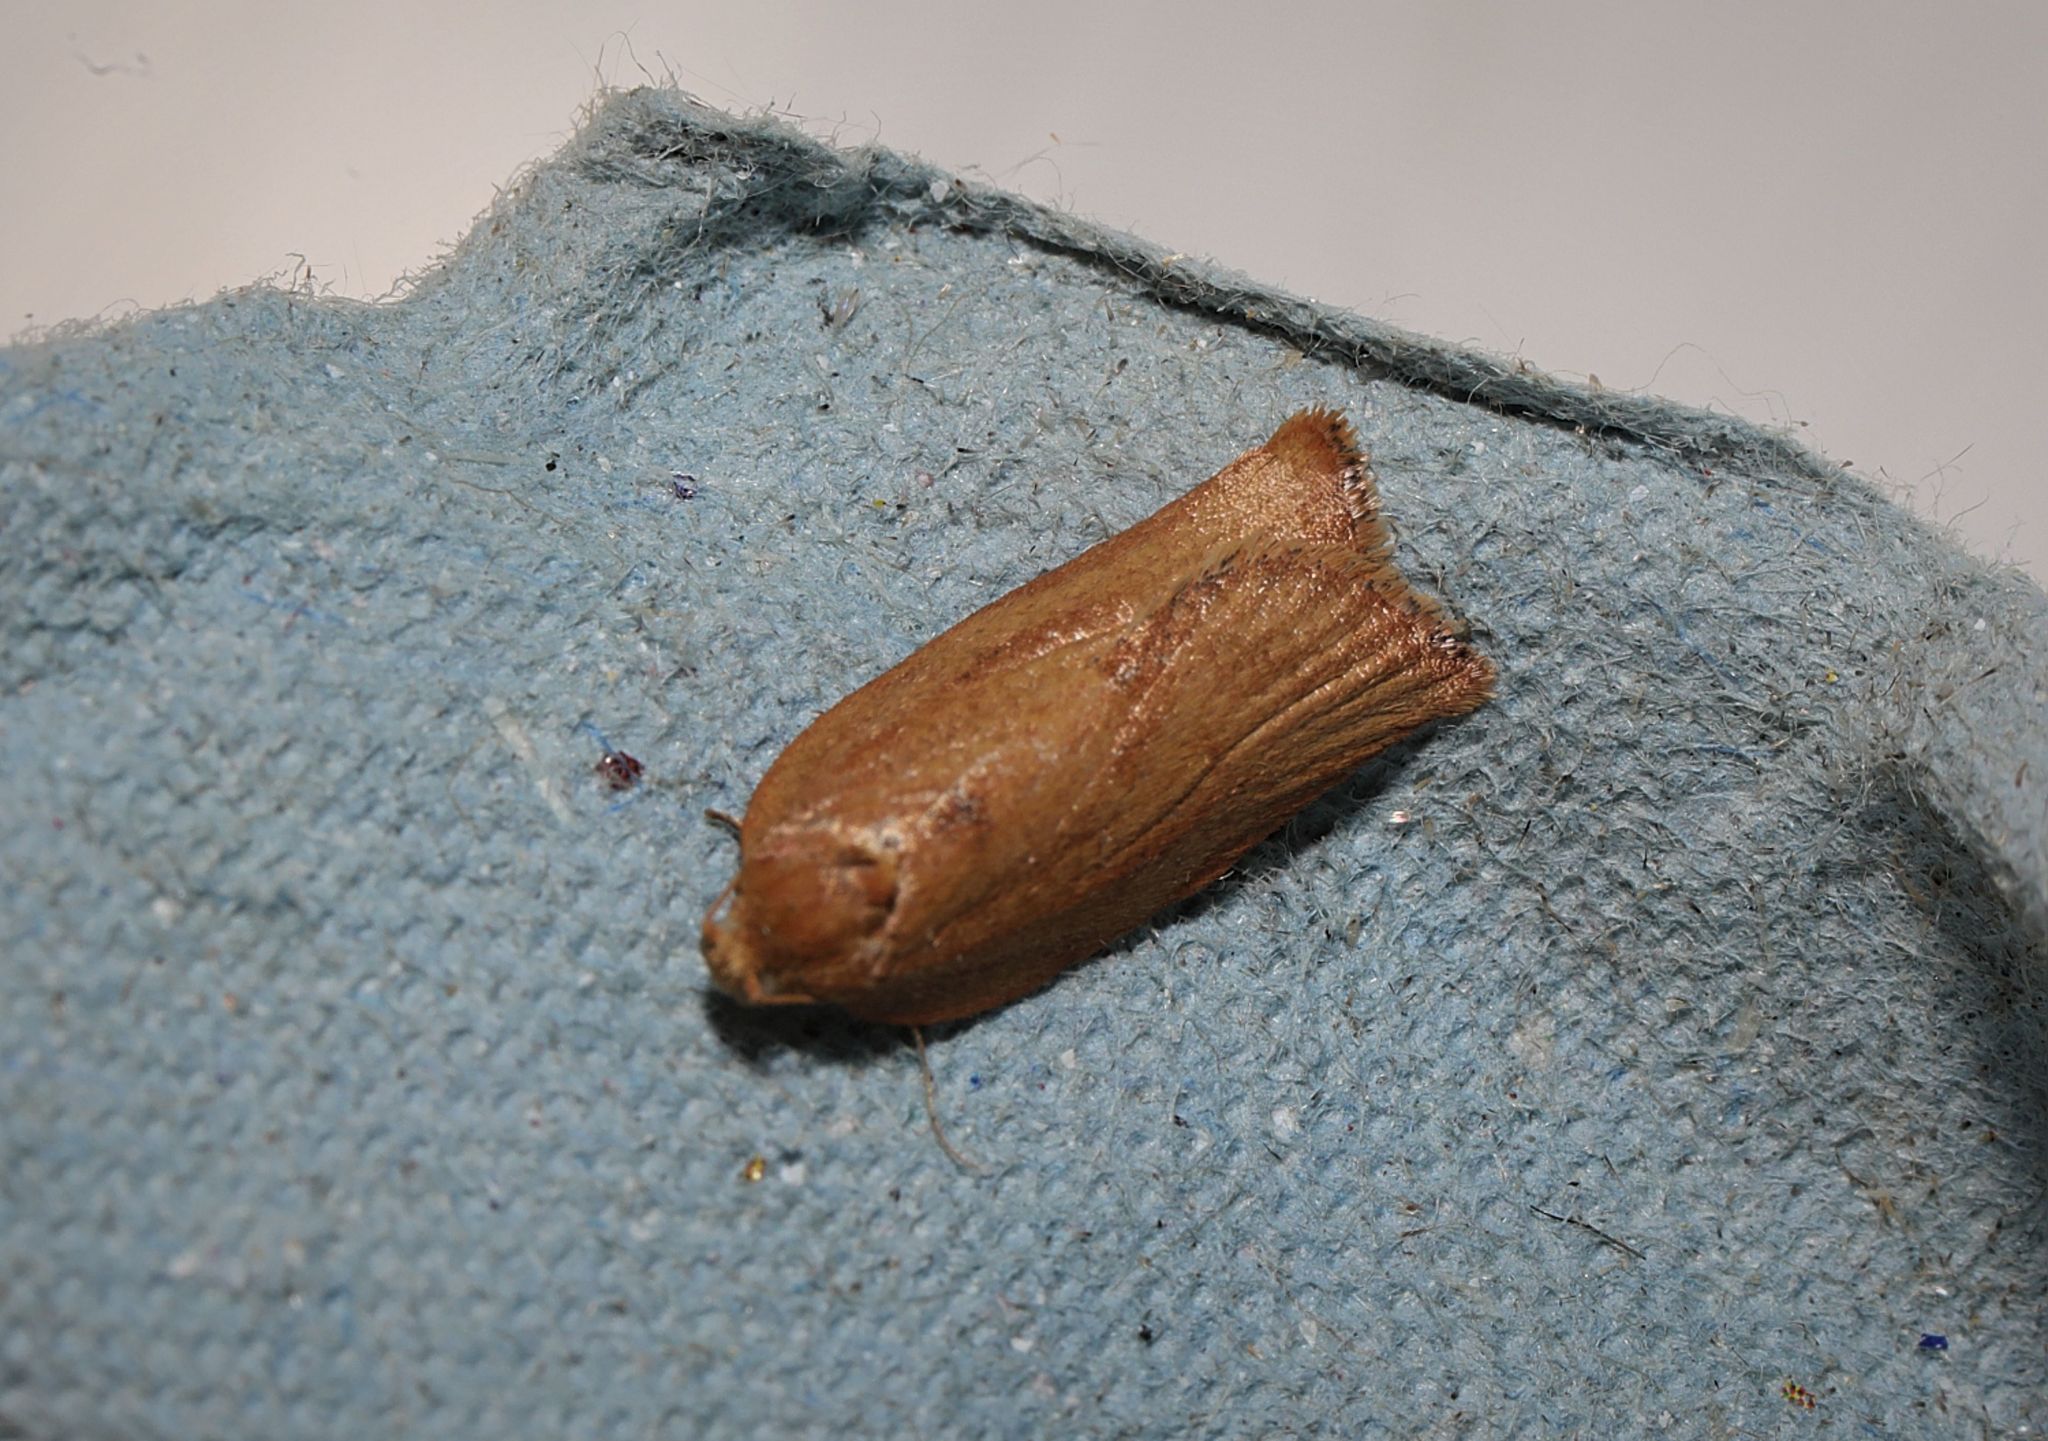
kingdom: Animalia
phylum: Arthropoda
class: Insecta
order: Lepidoptera
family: Tortricidae
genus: Epiphyas
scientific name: Epiphyas postvittana
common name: Light brown apple moth
